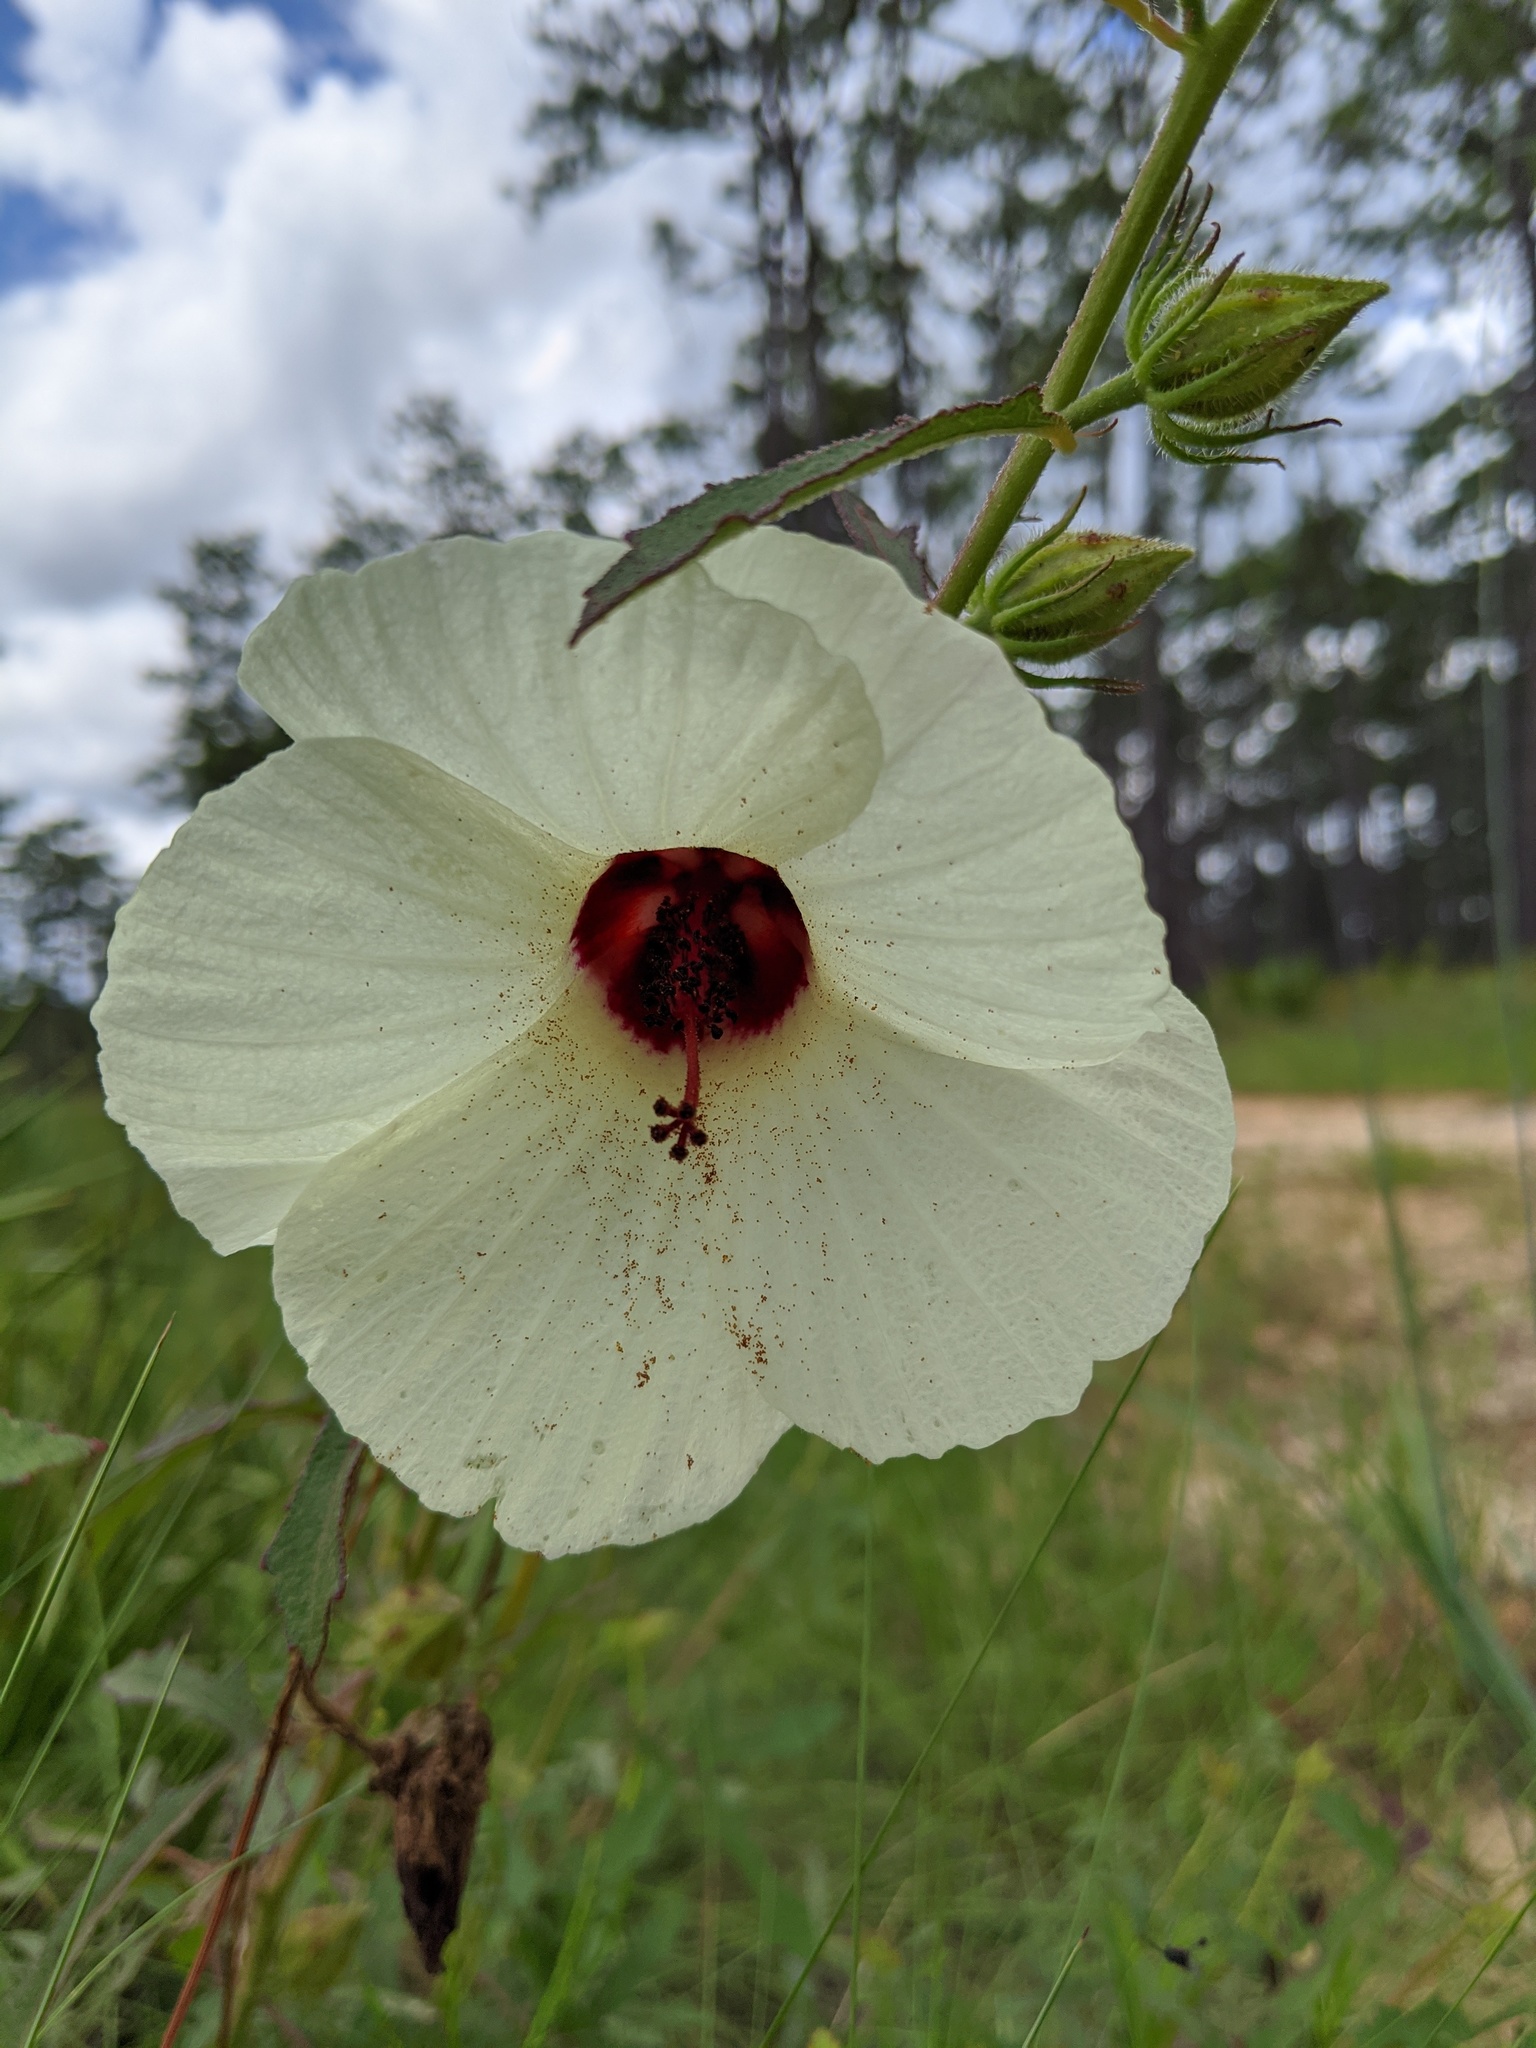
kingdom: Plantae
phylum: Tracheophyta
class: Magnoliopsida
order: Malvales
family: Malvaceae
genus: Hibiscus
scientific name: Hibiscus aculeatus
